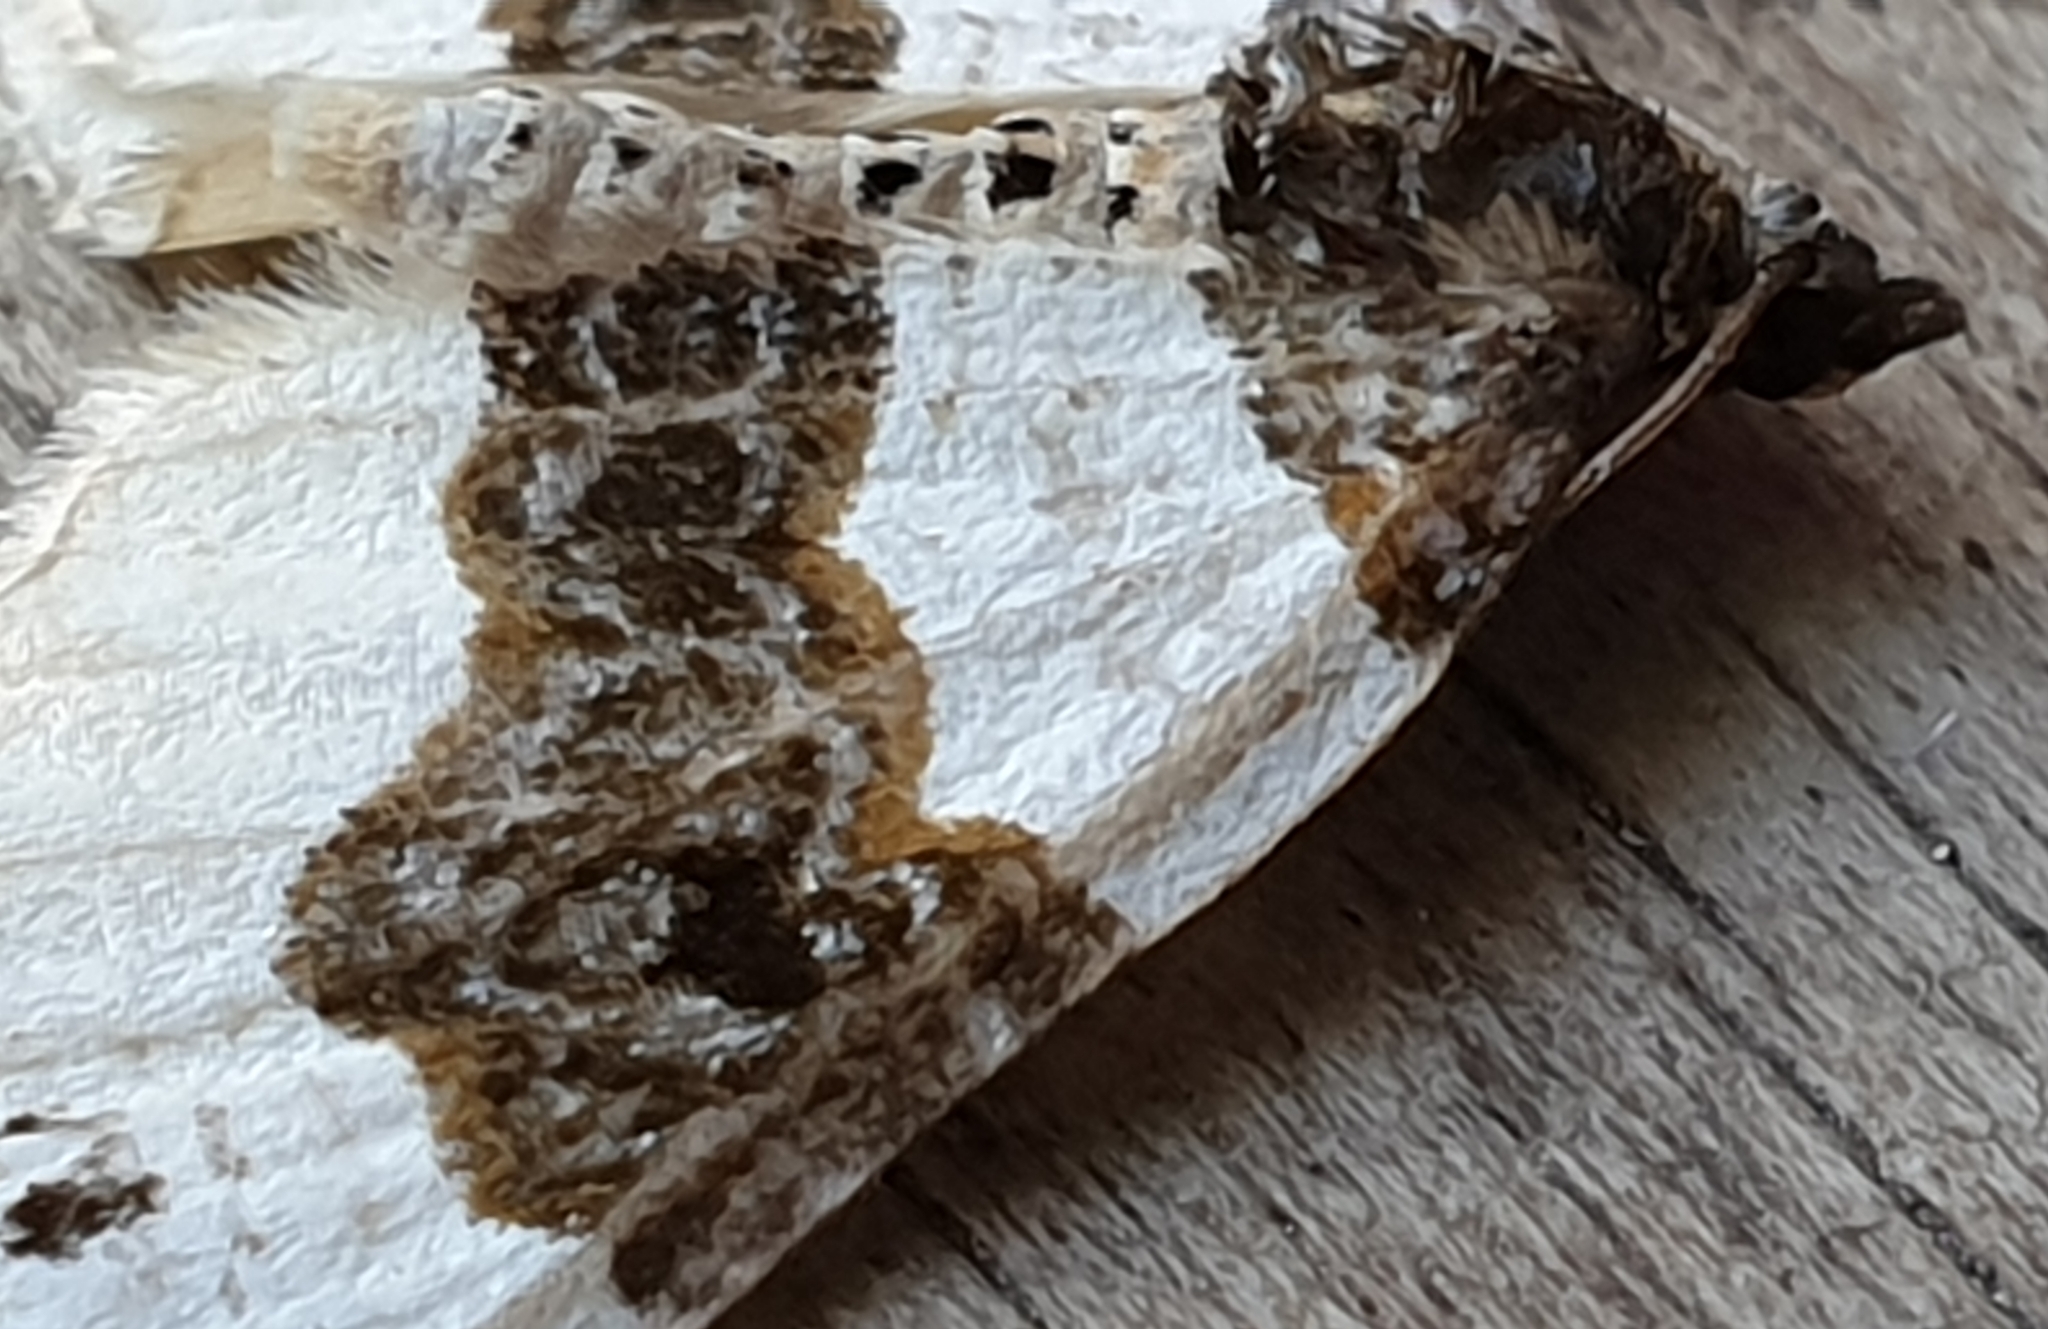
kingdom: Animalia
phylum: Arthropoda
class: Insecta
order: Lepidoptera
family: Geometridae
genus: Cosmorhoe
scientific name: Cosmorhoe ocellata
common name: Purple bar
